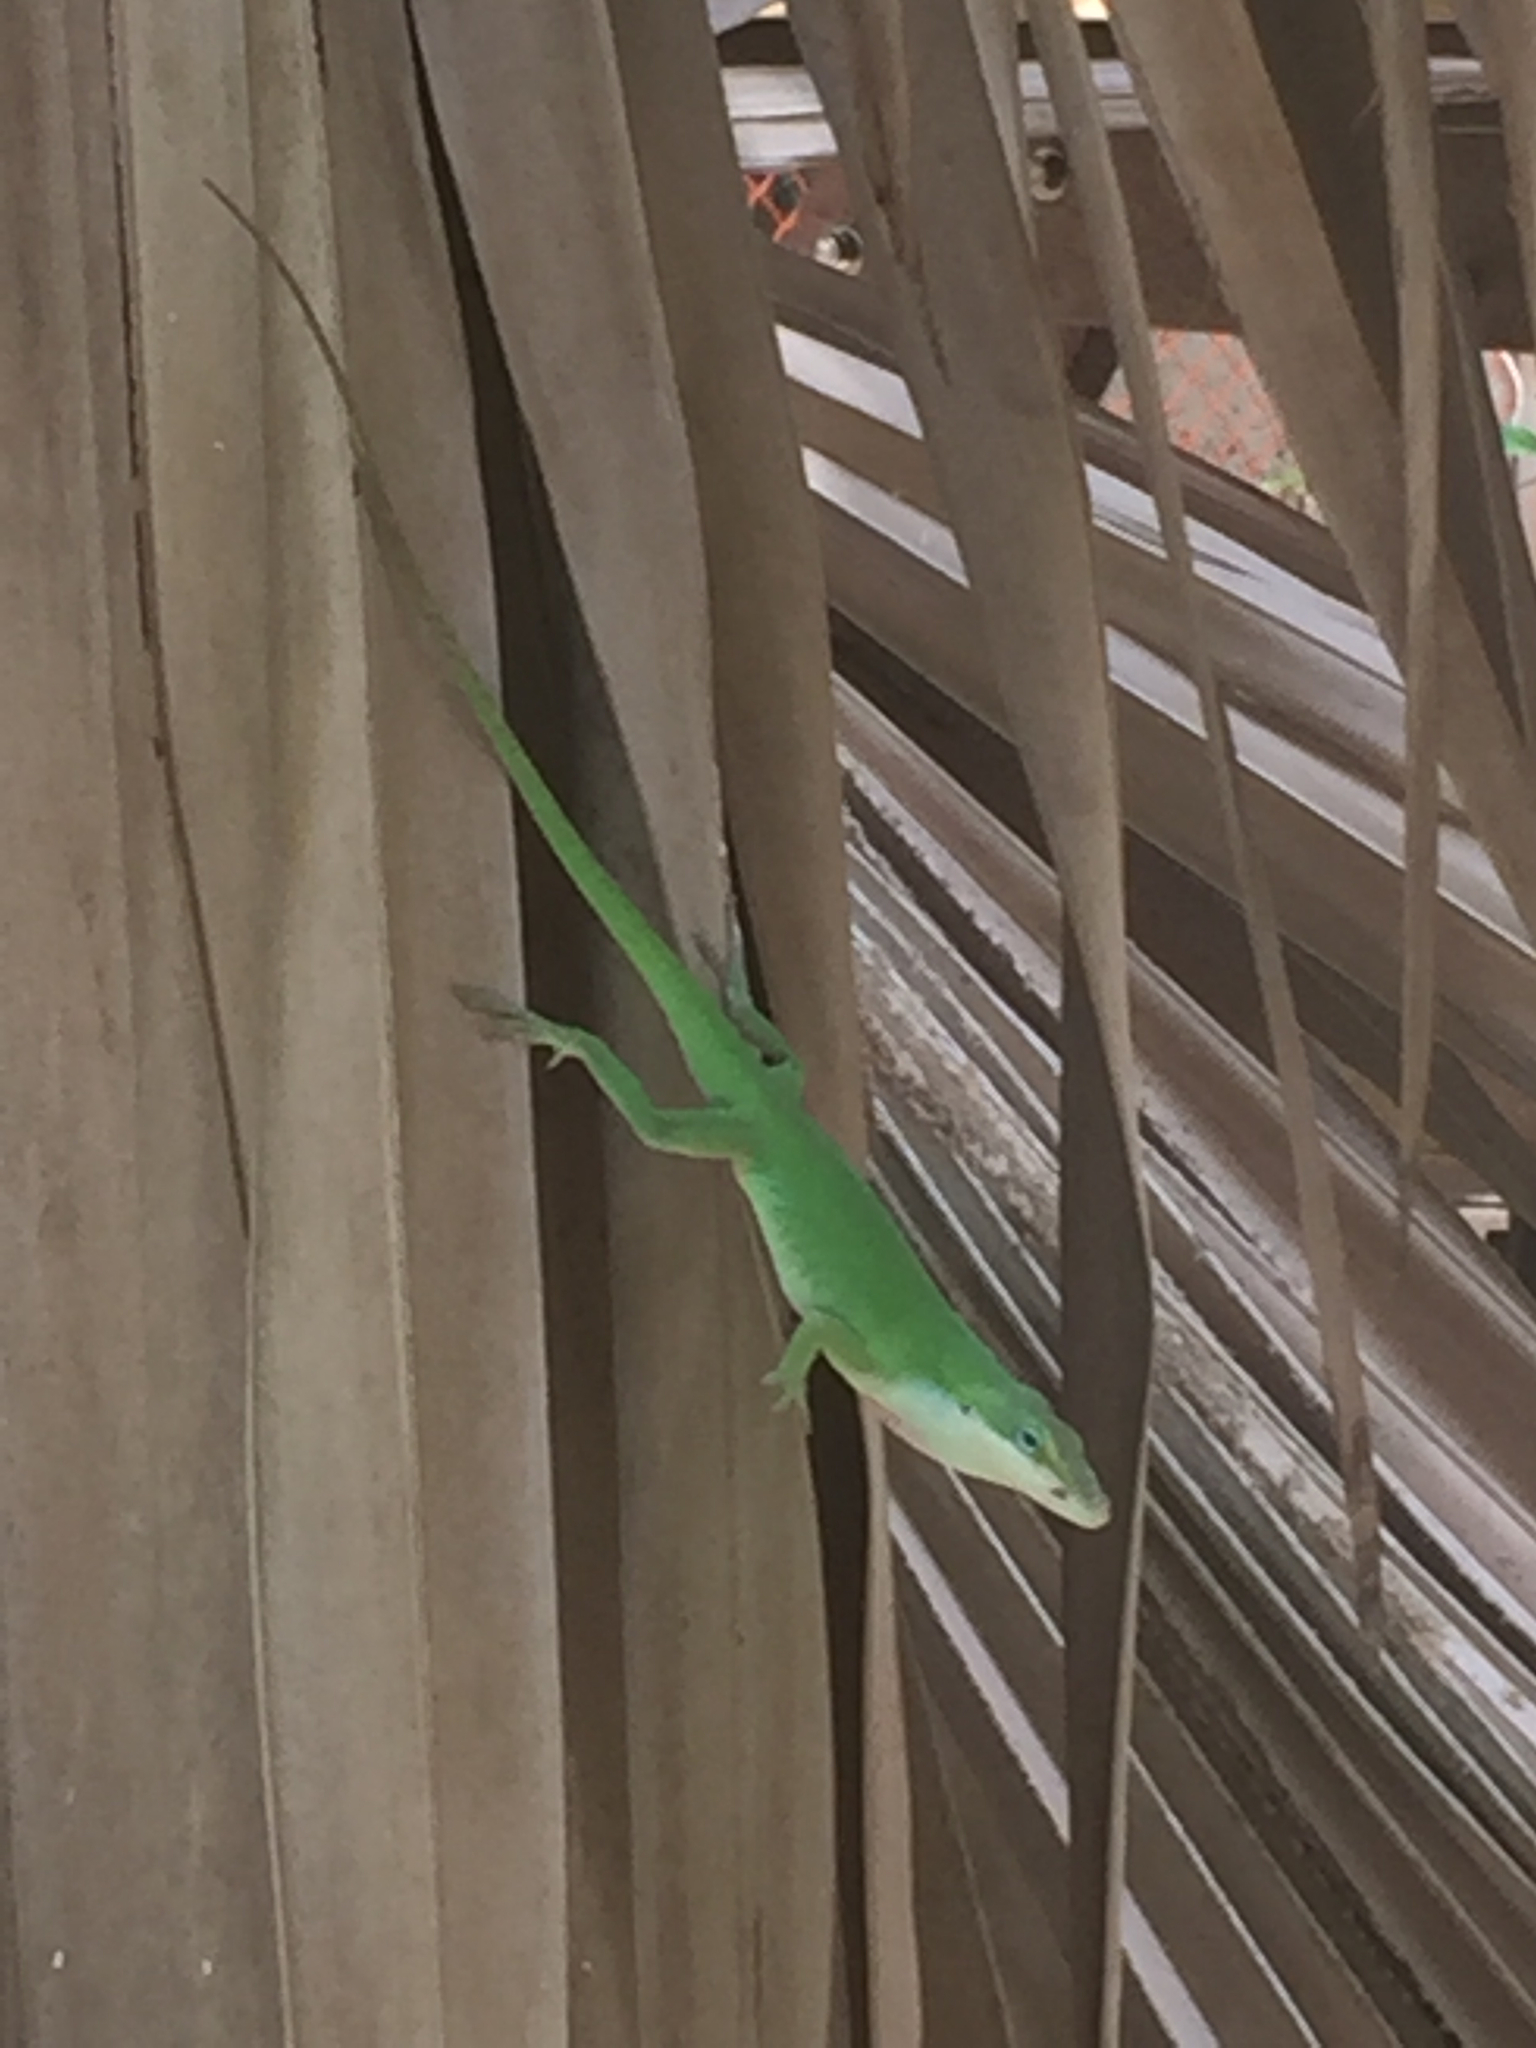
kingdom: Animalia
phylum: Chordata
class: Squamata
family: Dactyloidae
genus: Anolis
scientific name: Anolis carolinensis
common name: Green anole
